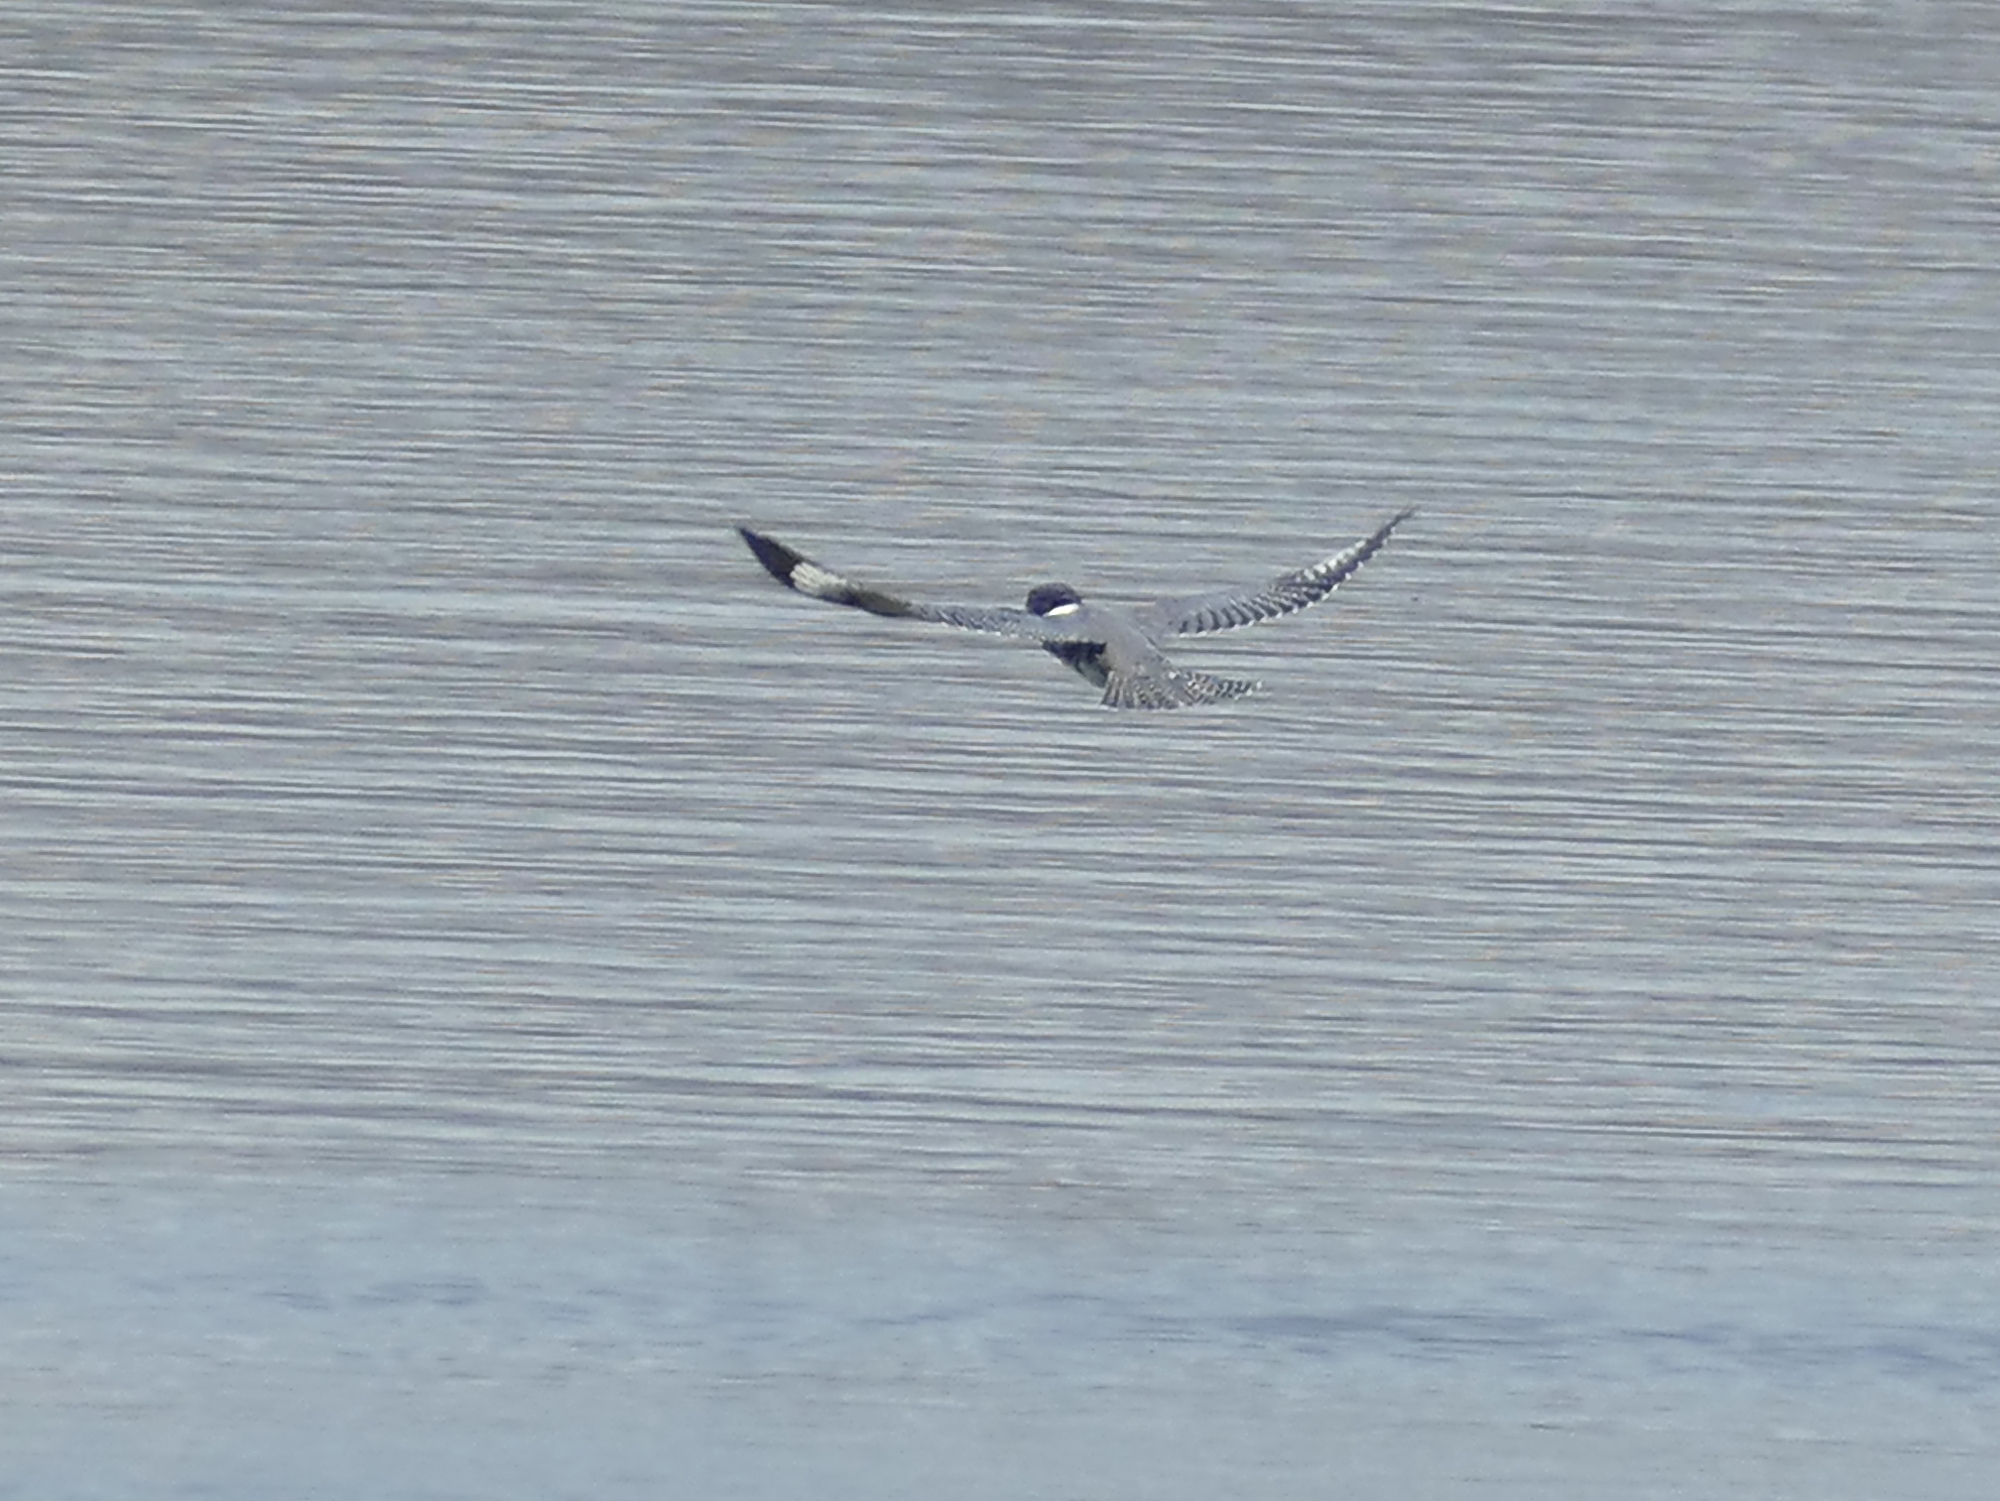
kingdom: Animalia
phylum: Chordata
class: Aves
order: Coraciiformes
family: Alcedinidae
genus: Megaceryle
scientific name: Megaceryle alcyon
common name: Belted kingfisher
